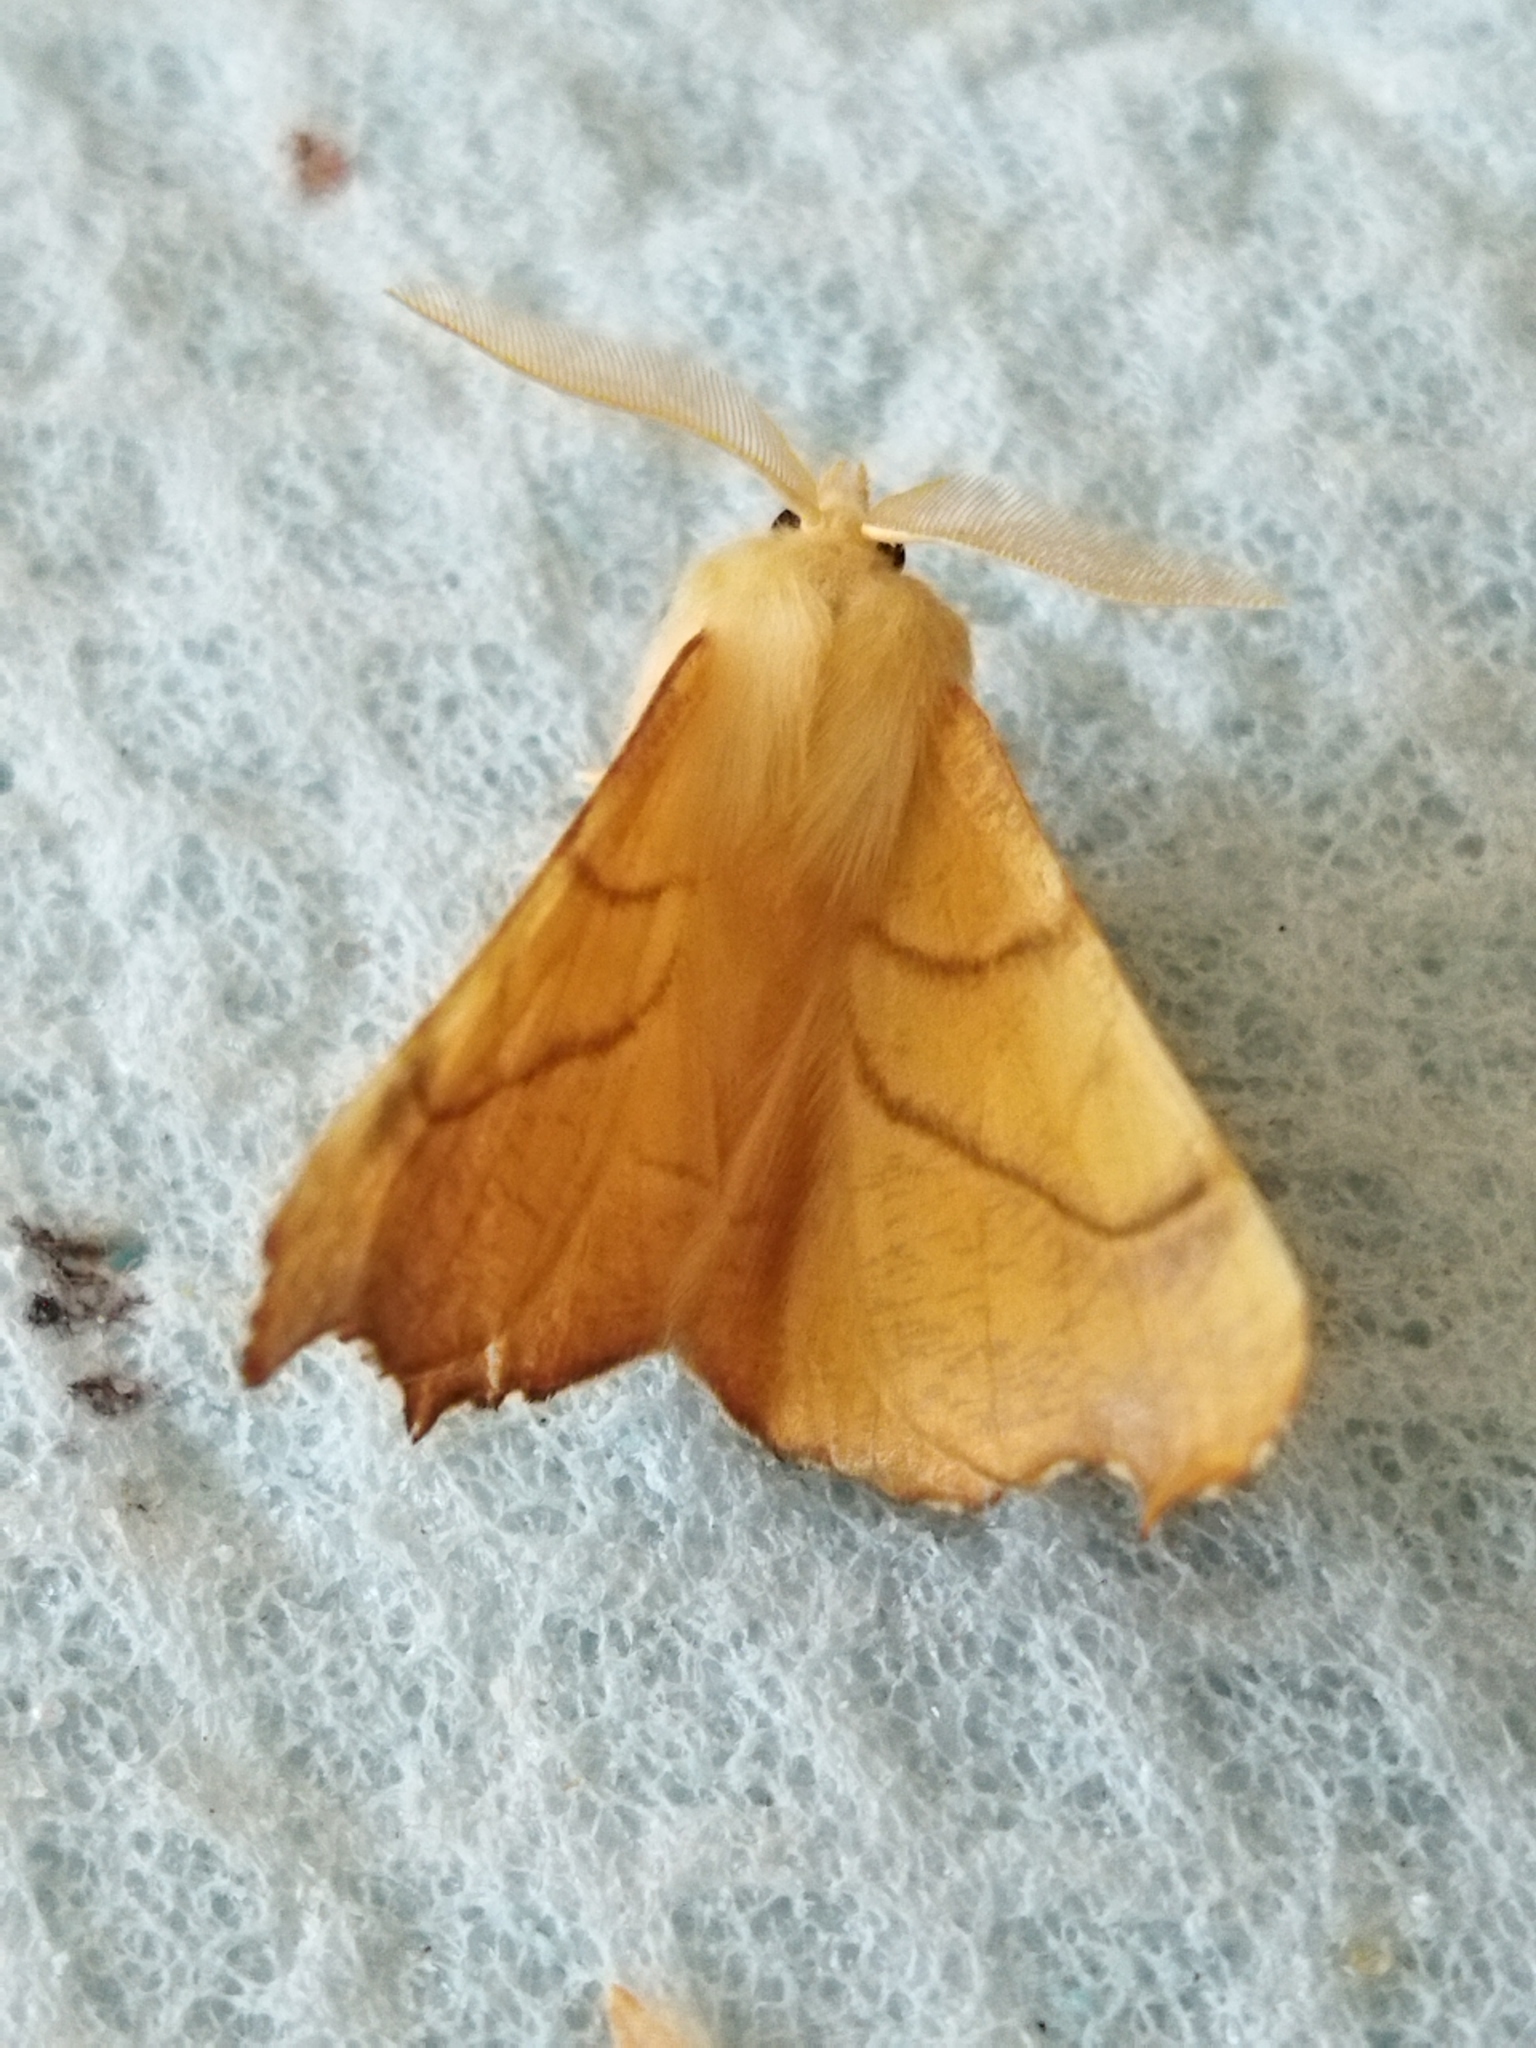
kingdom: Animalia
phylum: Arthropoda
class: Insecta
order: Lepidoptera
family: Geometridae
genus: Ennomos
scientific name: Ennomos erosaria
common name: September thorn
